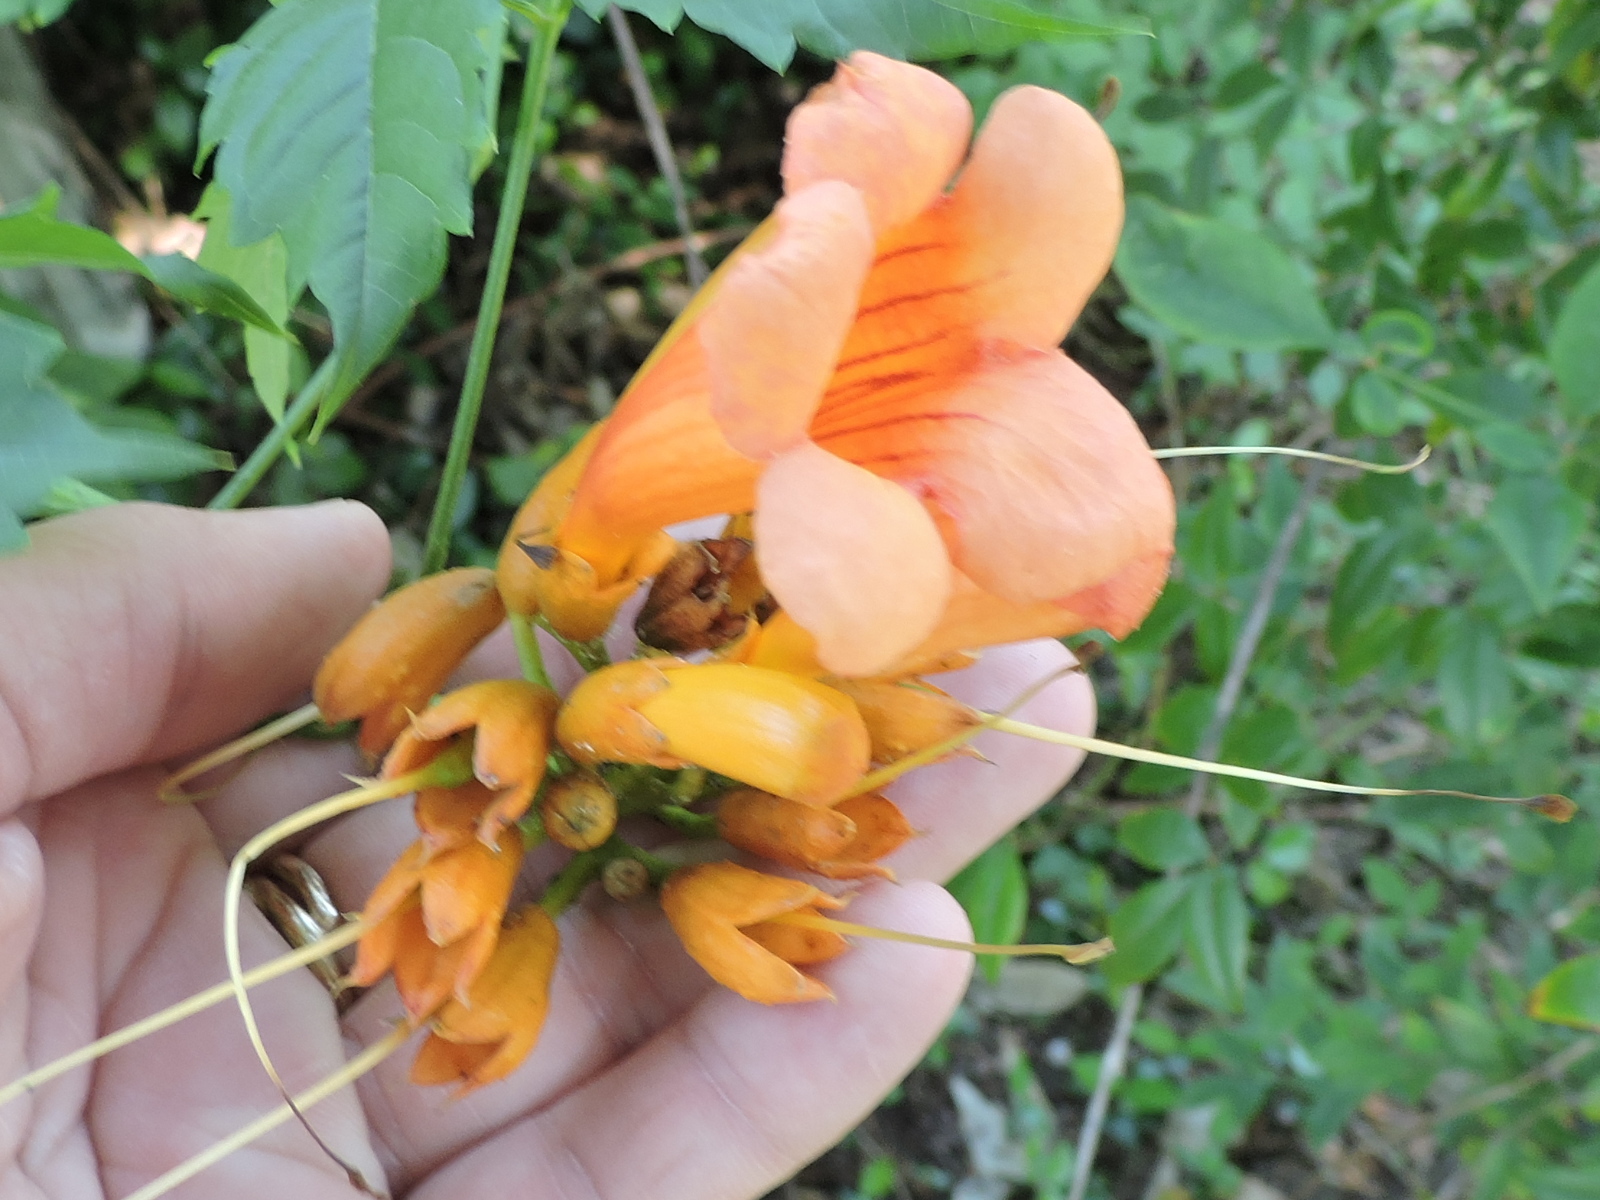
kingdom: Plantae
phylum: Tracheophyta
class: Magnoliopsida
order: Lamiales
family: Bignoniaceae
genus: Campsis
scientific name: Campsis radicans
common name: Trumpet-creeper
